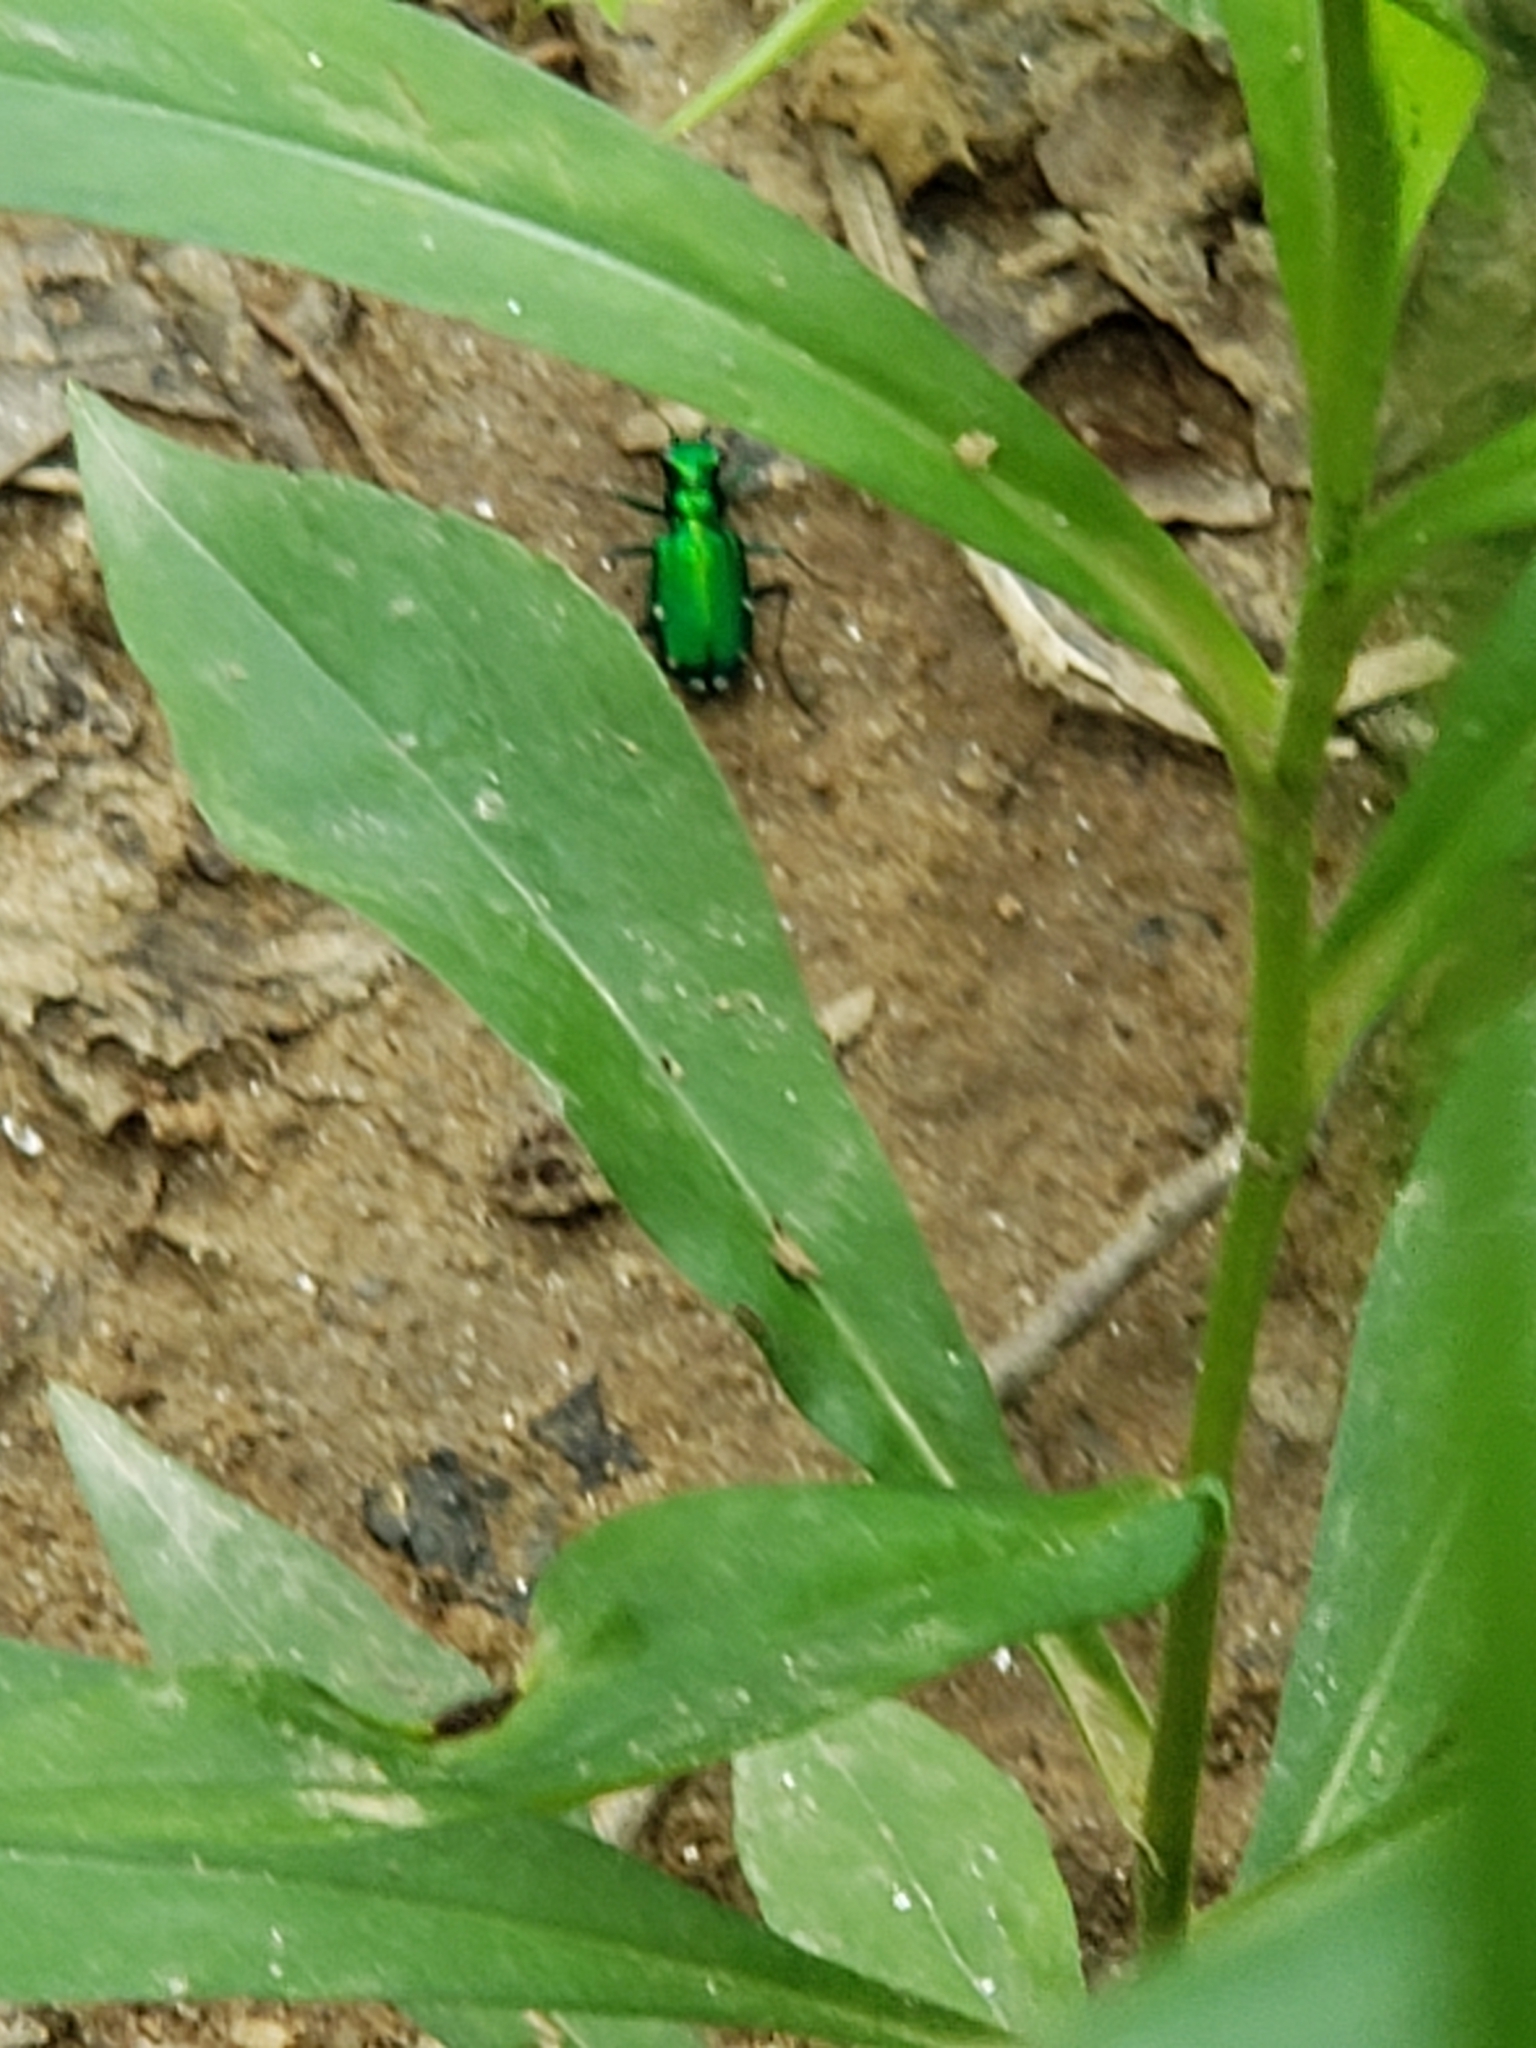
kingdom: Animalia
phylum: Arthropoda
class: Insecta
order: Coleoptera
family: Carabidae
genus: Cicindela
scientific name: Cicindela sexguttata
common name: Six-spotted tiger beetle
